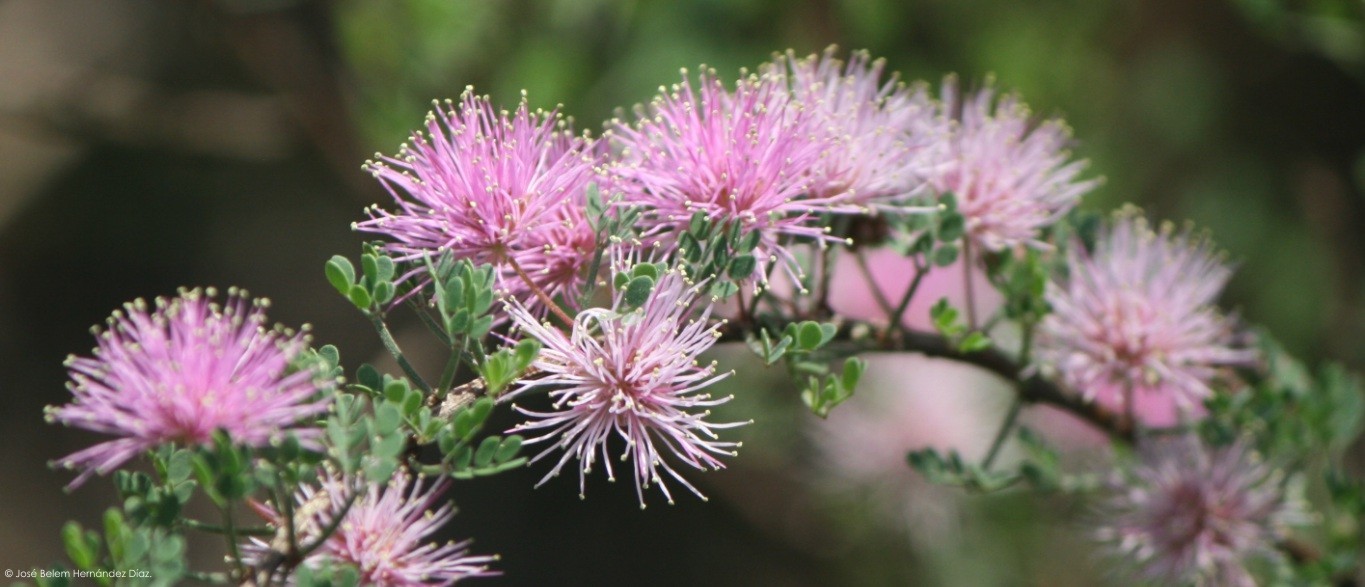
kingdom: Plantae
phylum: Tracheophyta
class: Magnoliopsida
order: Fabales
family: Fabaceae
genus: Mimosa
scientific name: Mimosa monancistra
